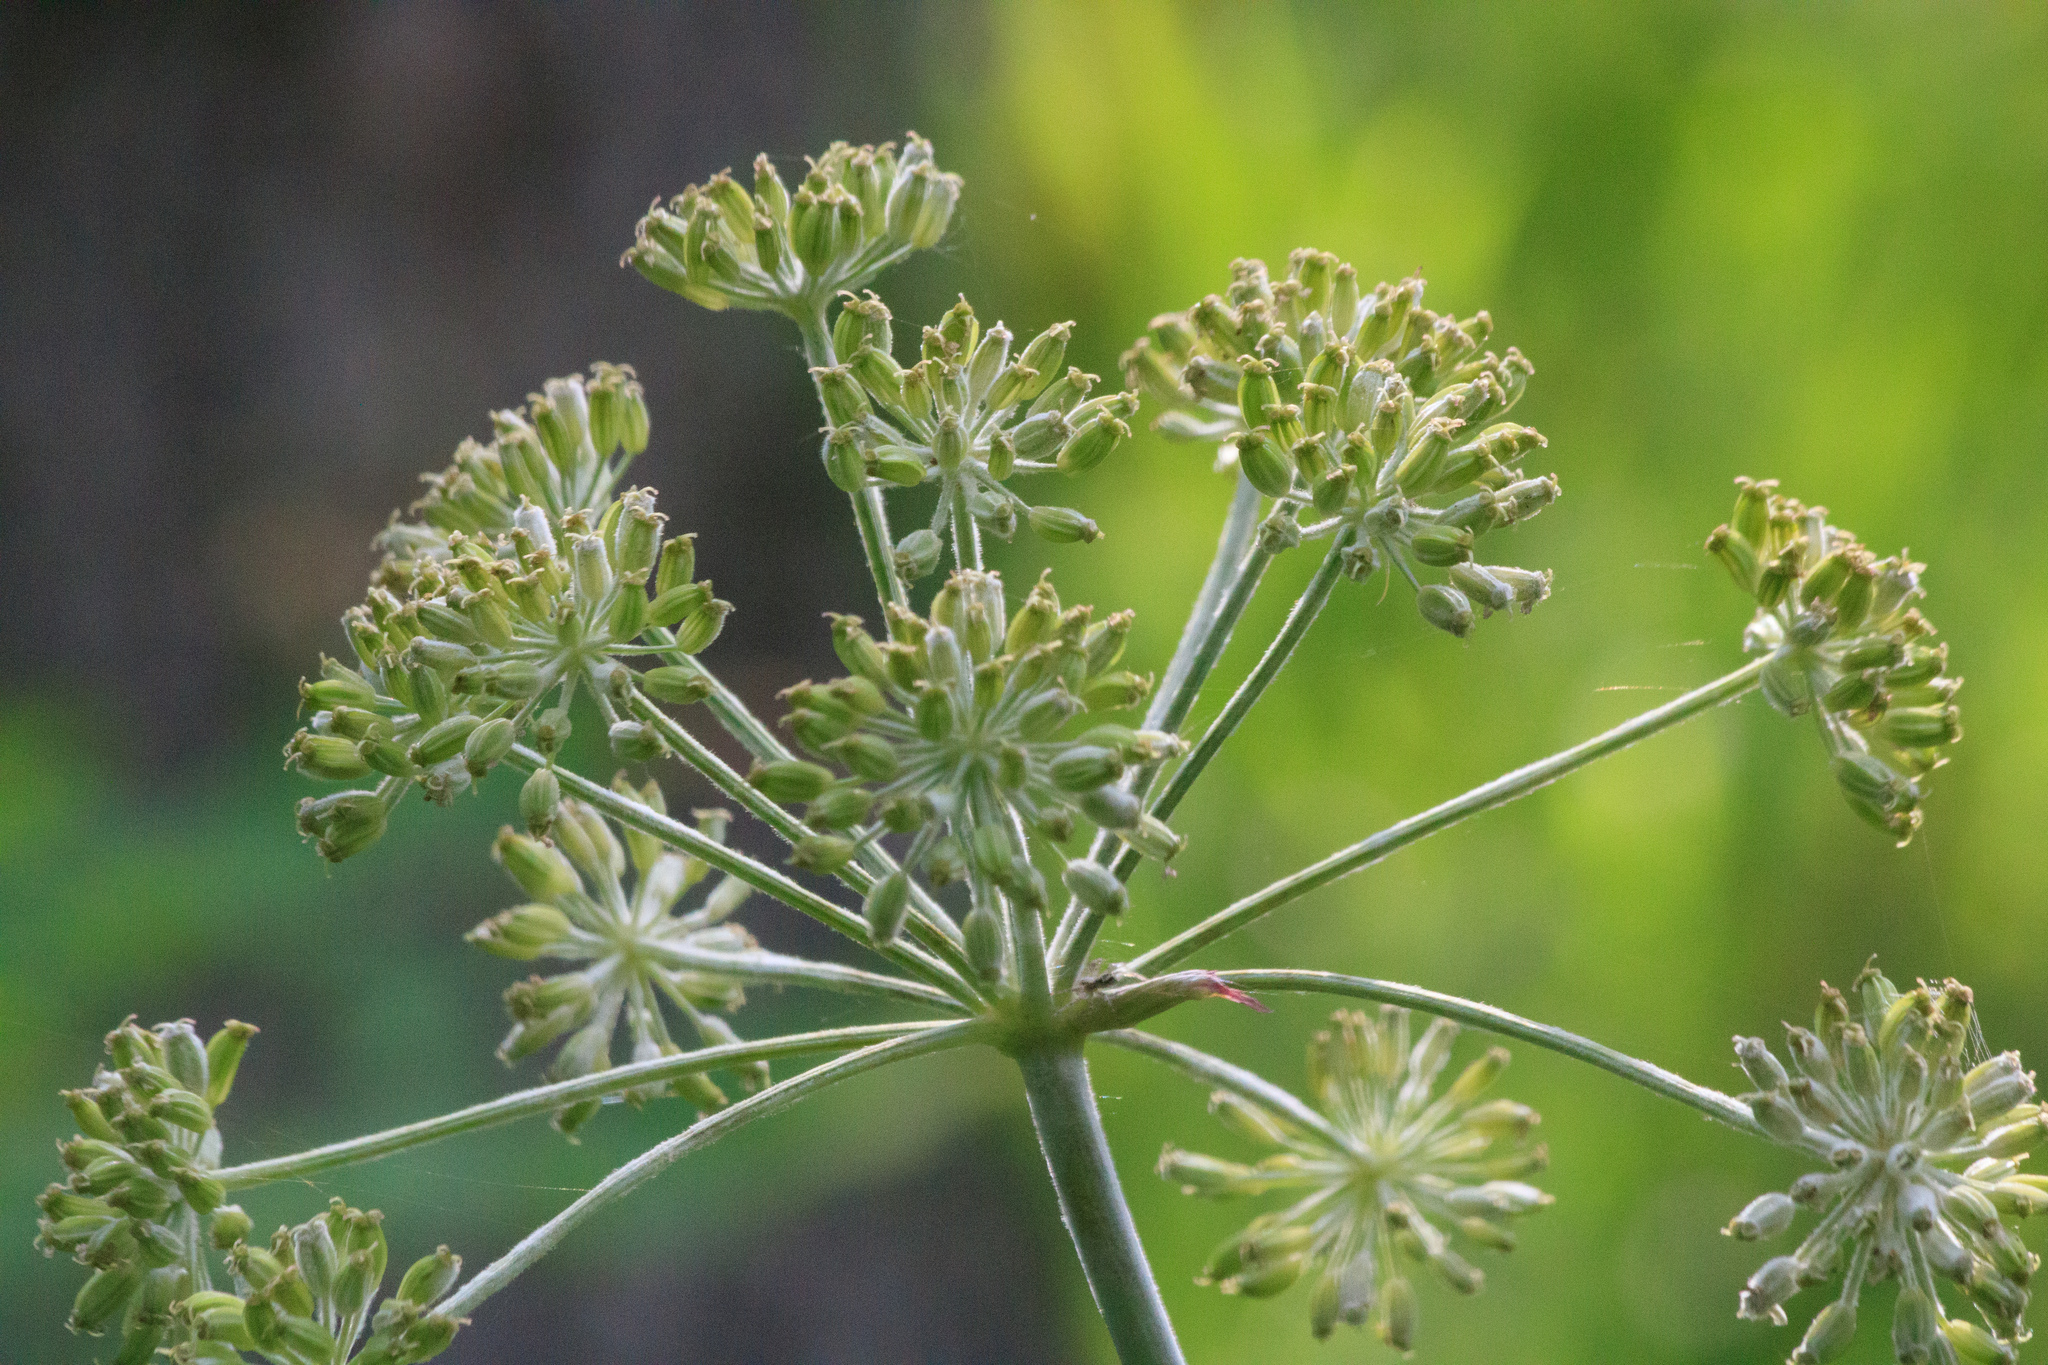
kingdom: Plantae
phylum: Tracheophyta
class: Magnoliopsida
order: Apiales
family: Apiaceae
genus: Angelica
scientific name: Angelica decurrens
